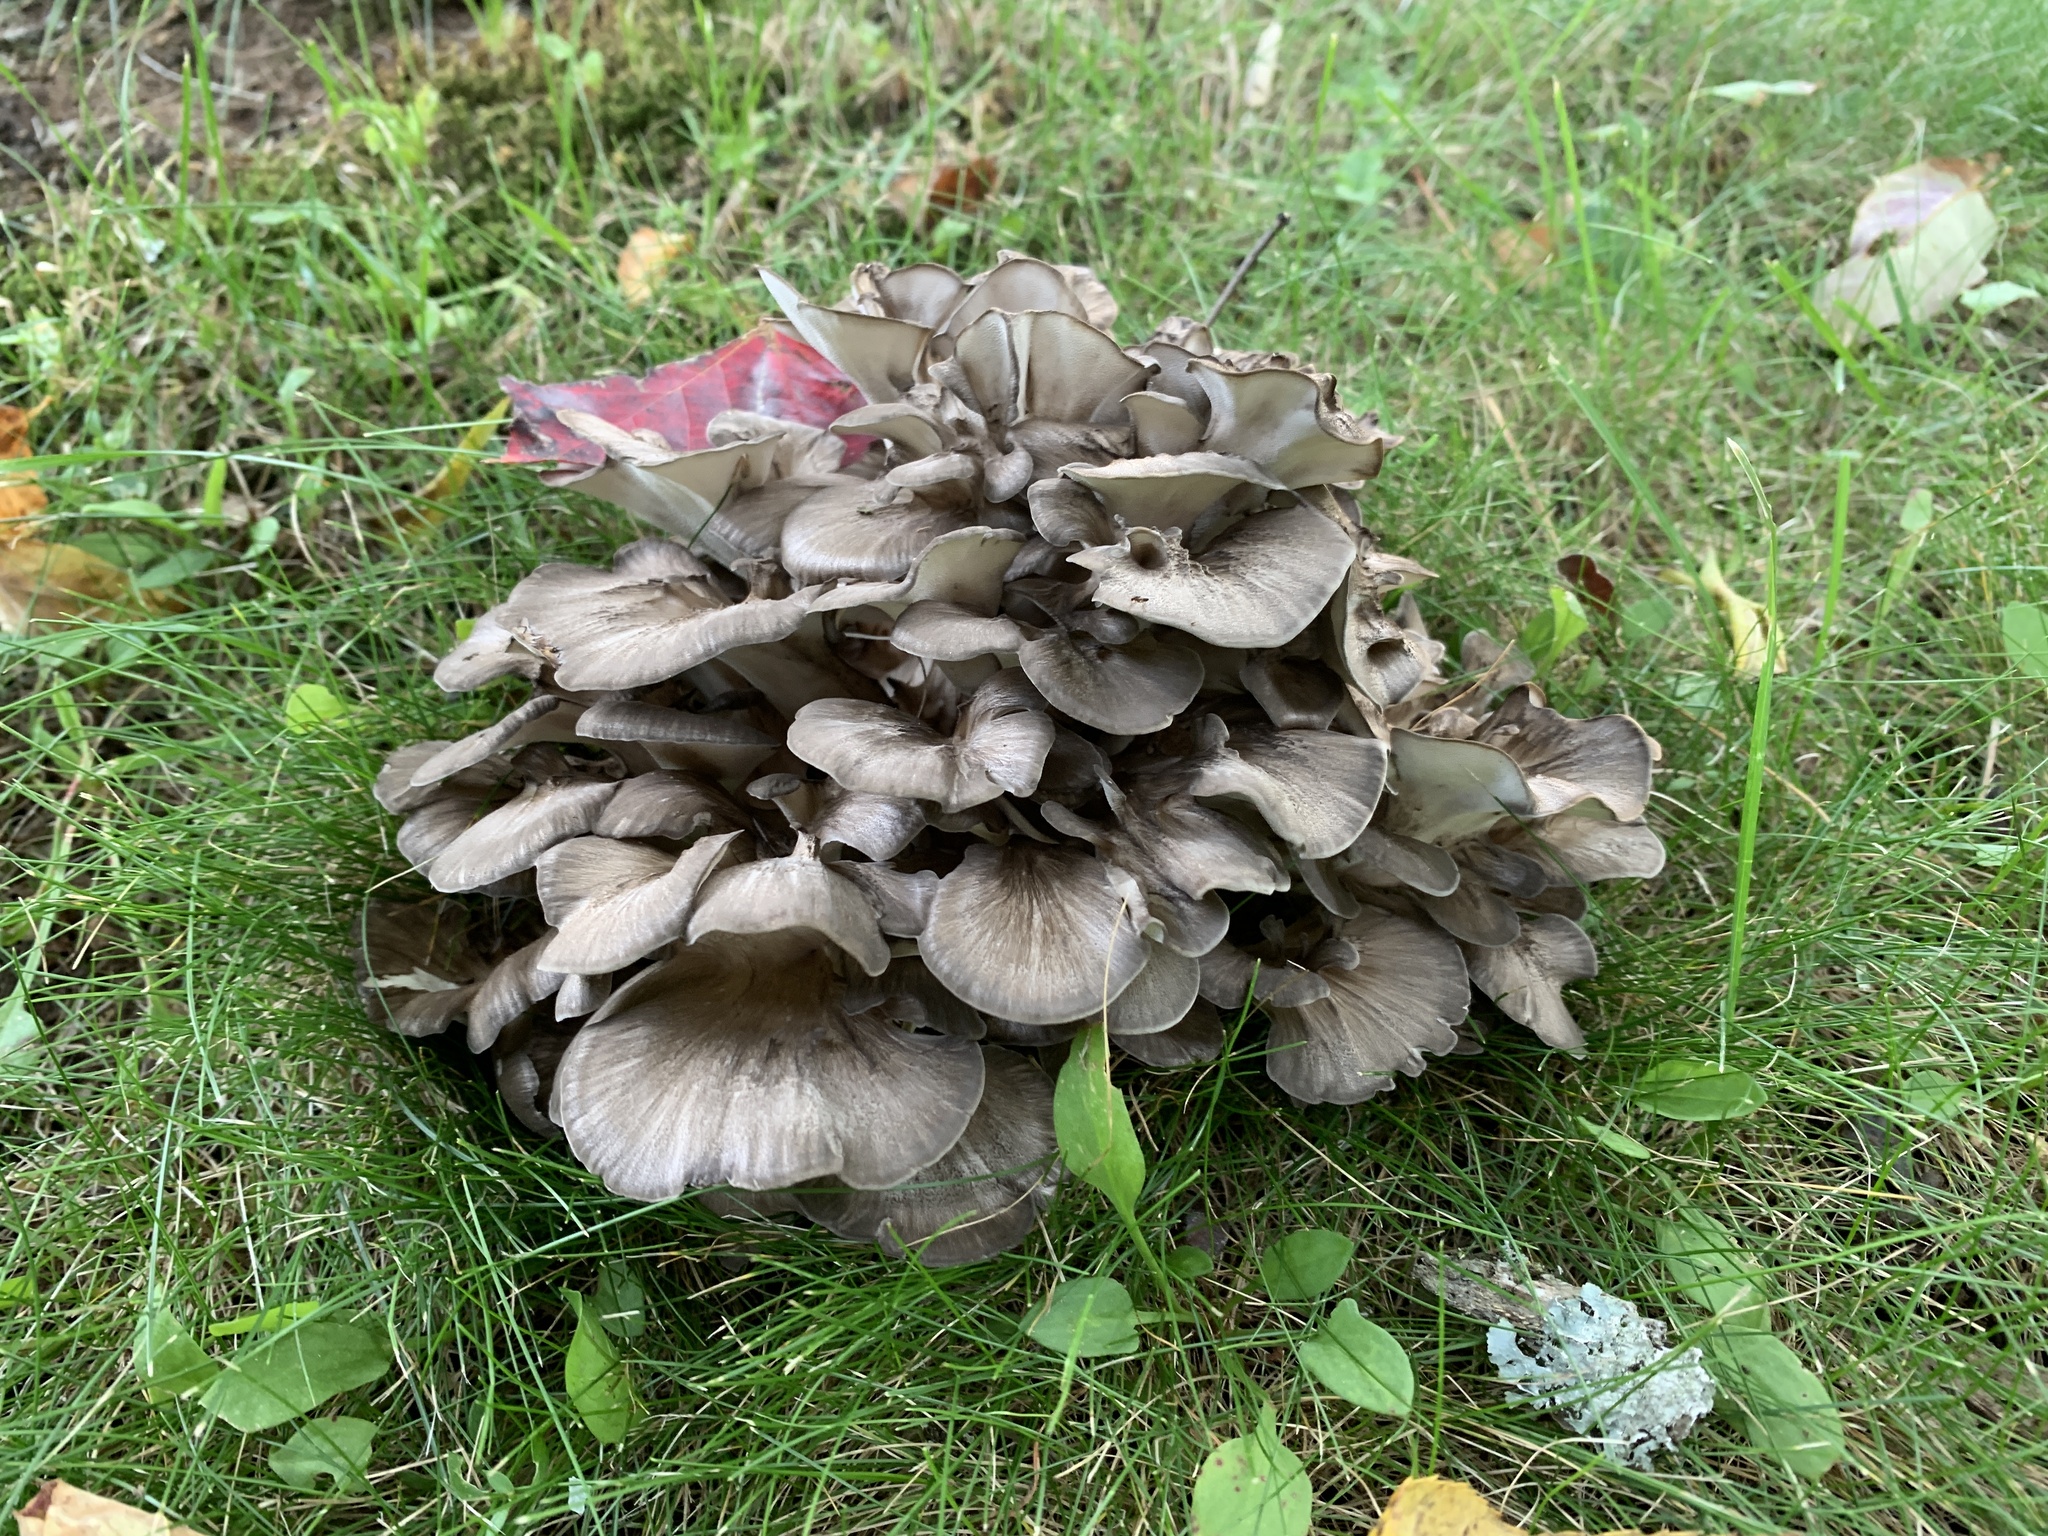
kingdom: Fungi
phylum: Basidiomycota
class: Agaricomycetes
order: Polyporales
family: Grifolaceae
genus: Grifola
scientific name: Grifola frondosa
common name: Hen of the woods
